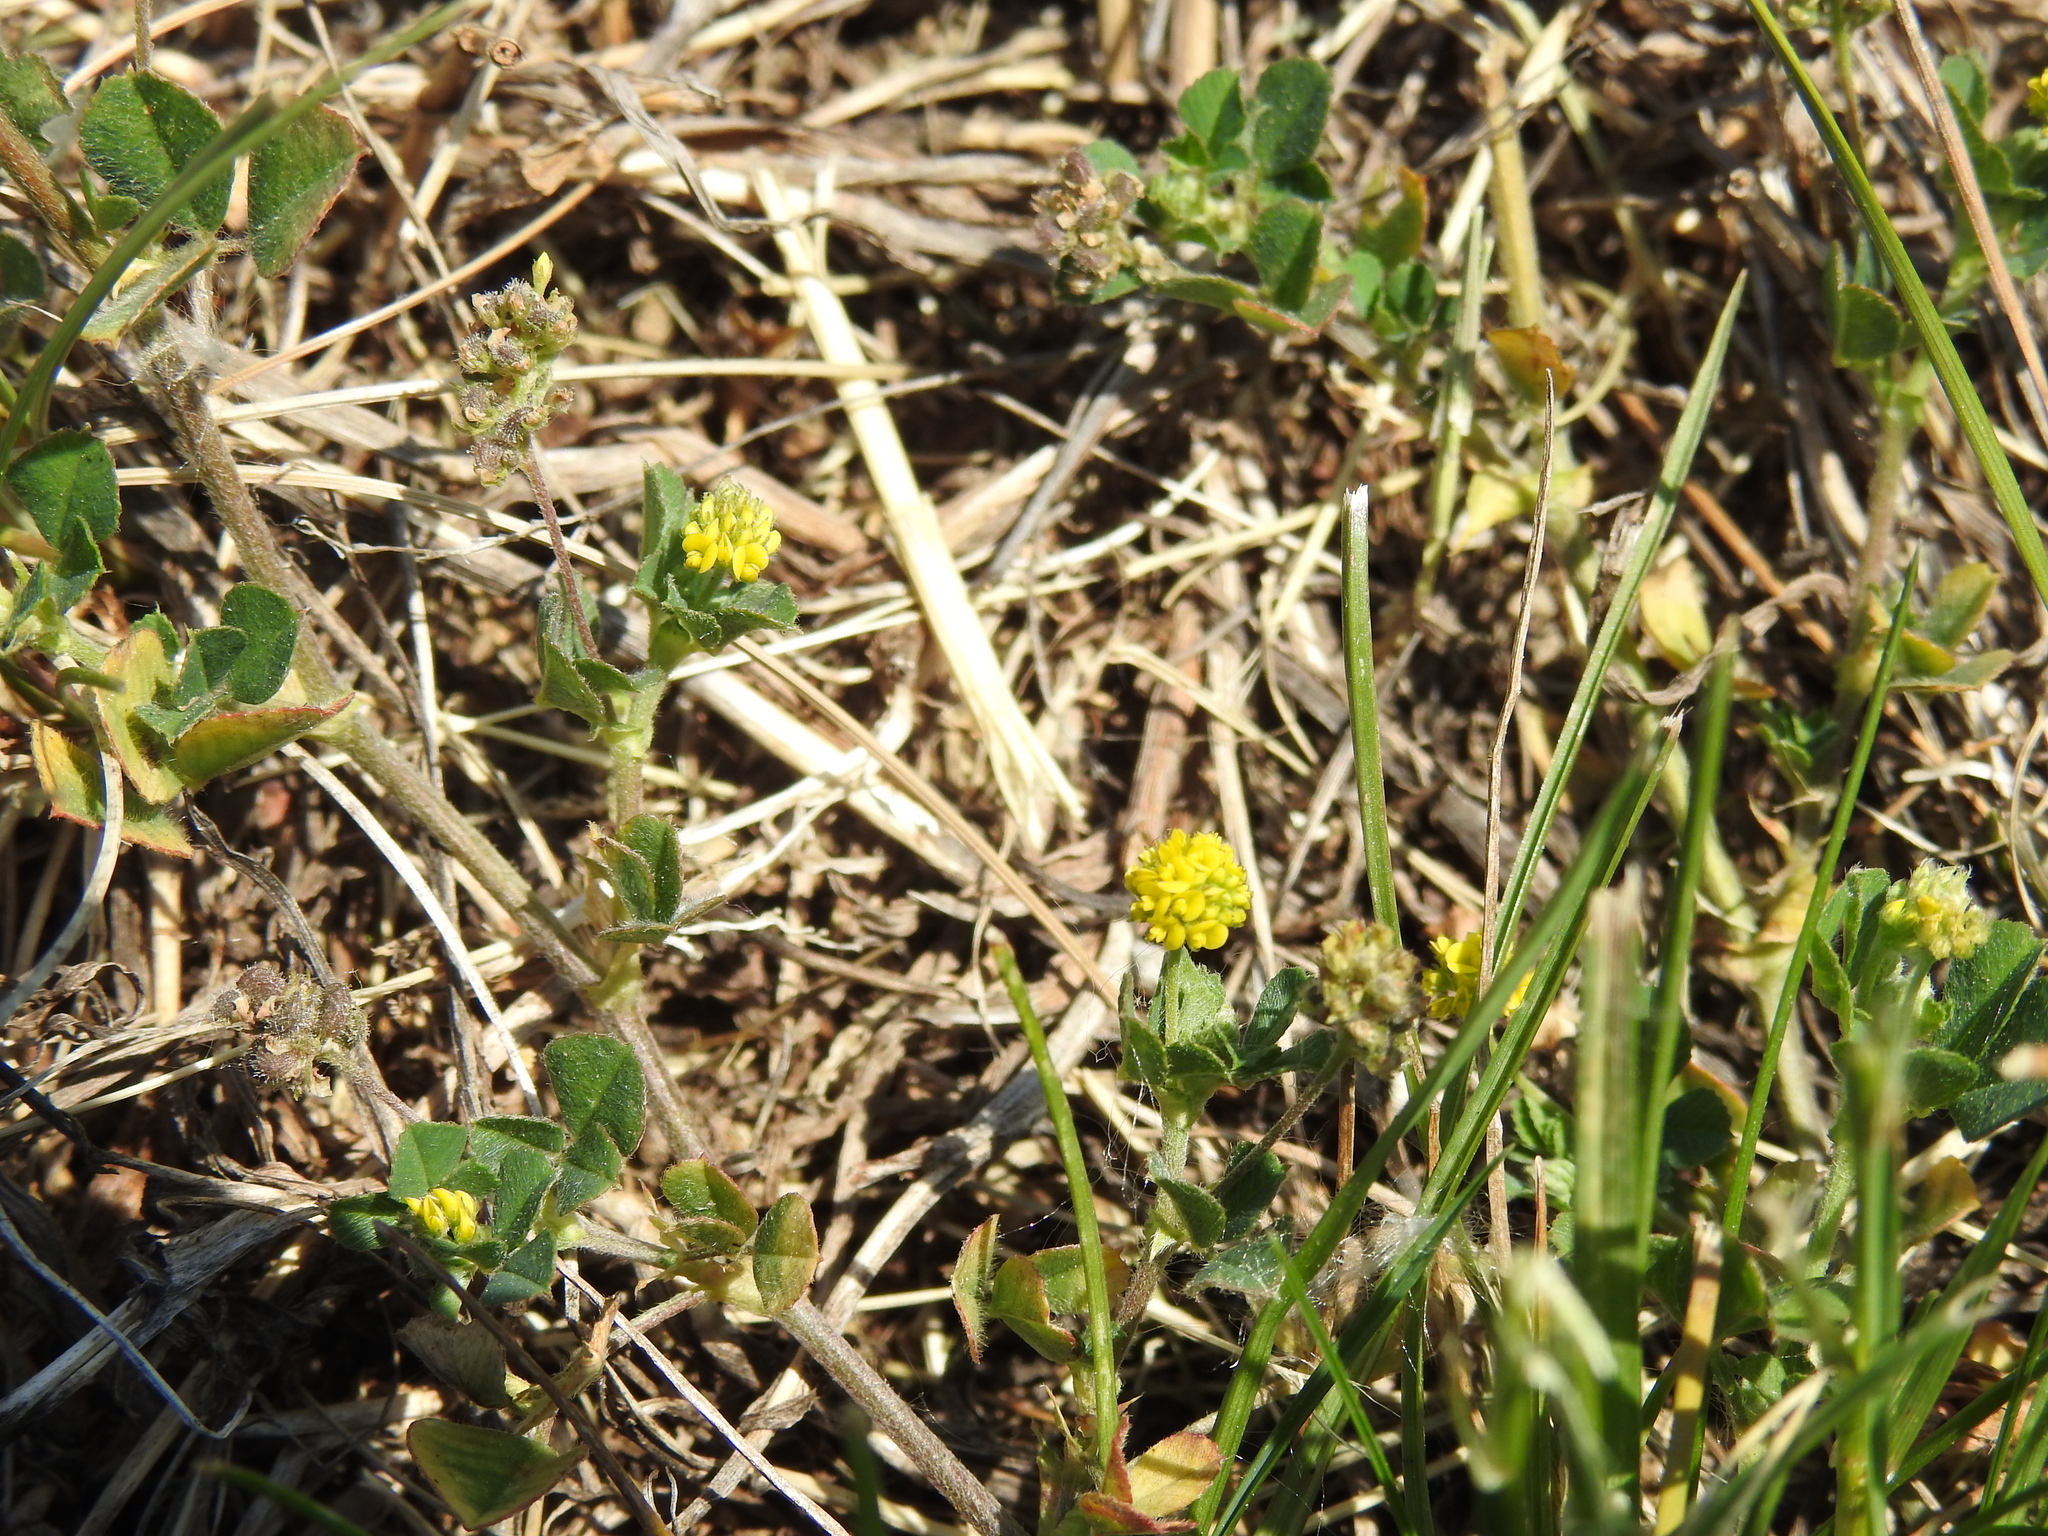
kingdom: Plantae
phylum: Tracheophyta
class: Magnoliopsida
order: Fabales
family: Fabaceae
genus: Medicago
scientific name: Medicago lupulina
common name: Black medick
